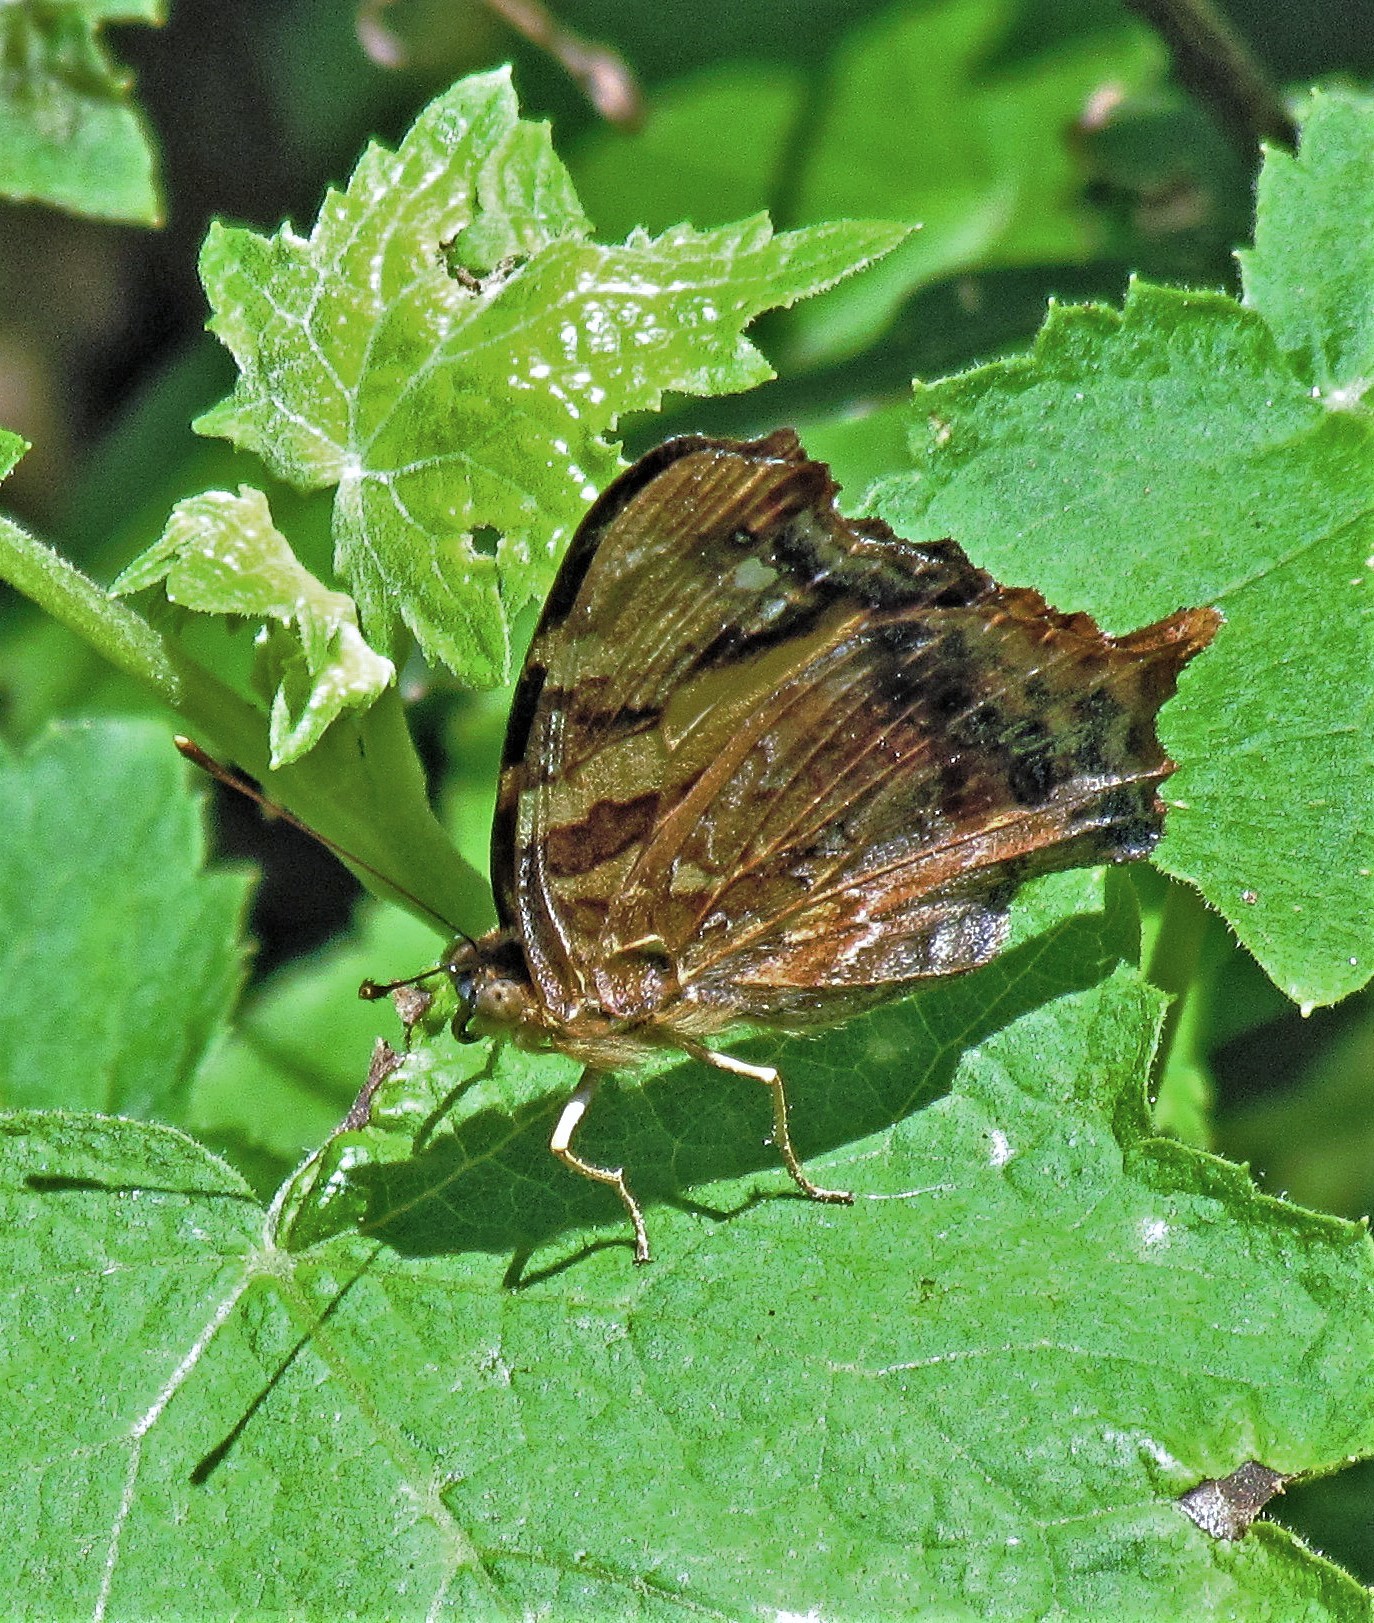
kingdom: Animalia
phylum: Arthropoda
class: Insecta
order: Lepidoptera
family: Nymphalidae
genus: Hypanartia
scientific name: Hypanartia bella
